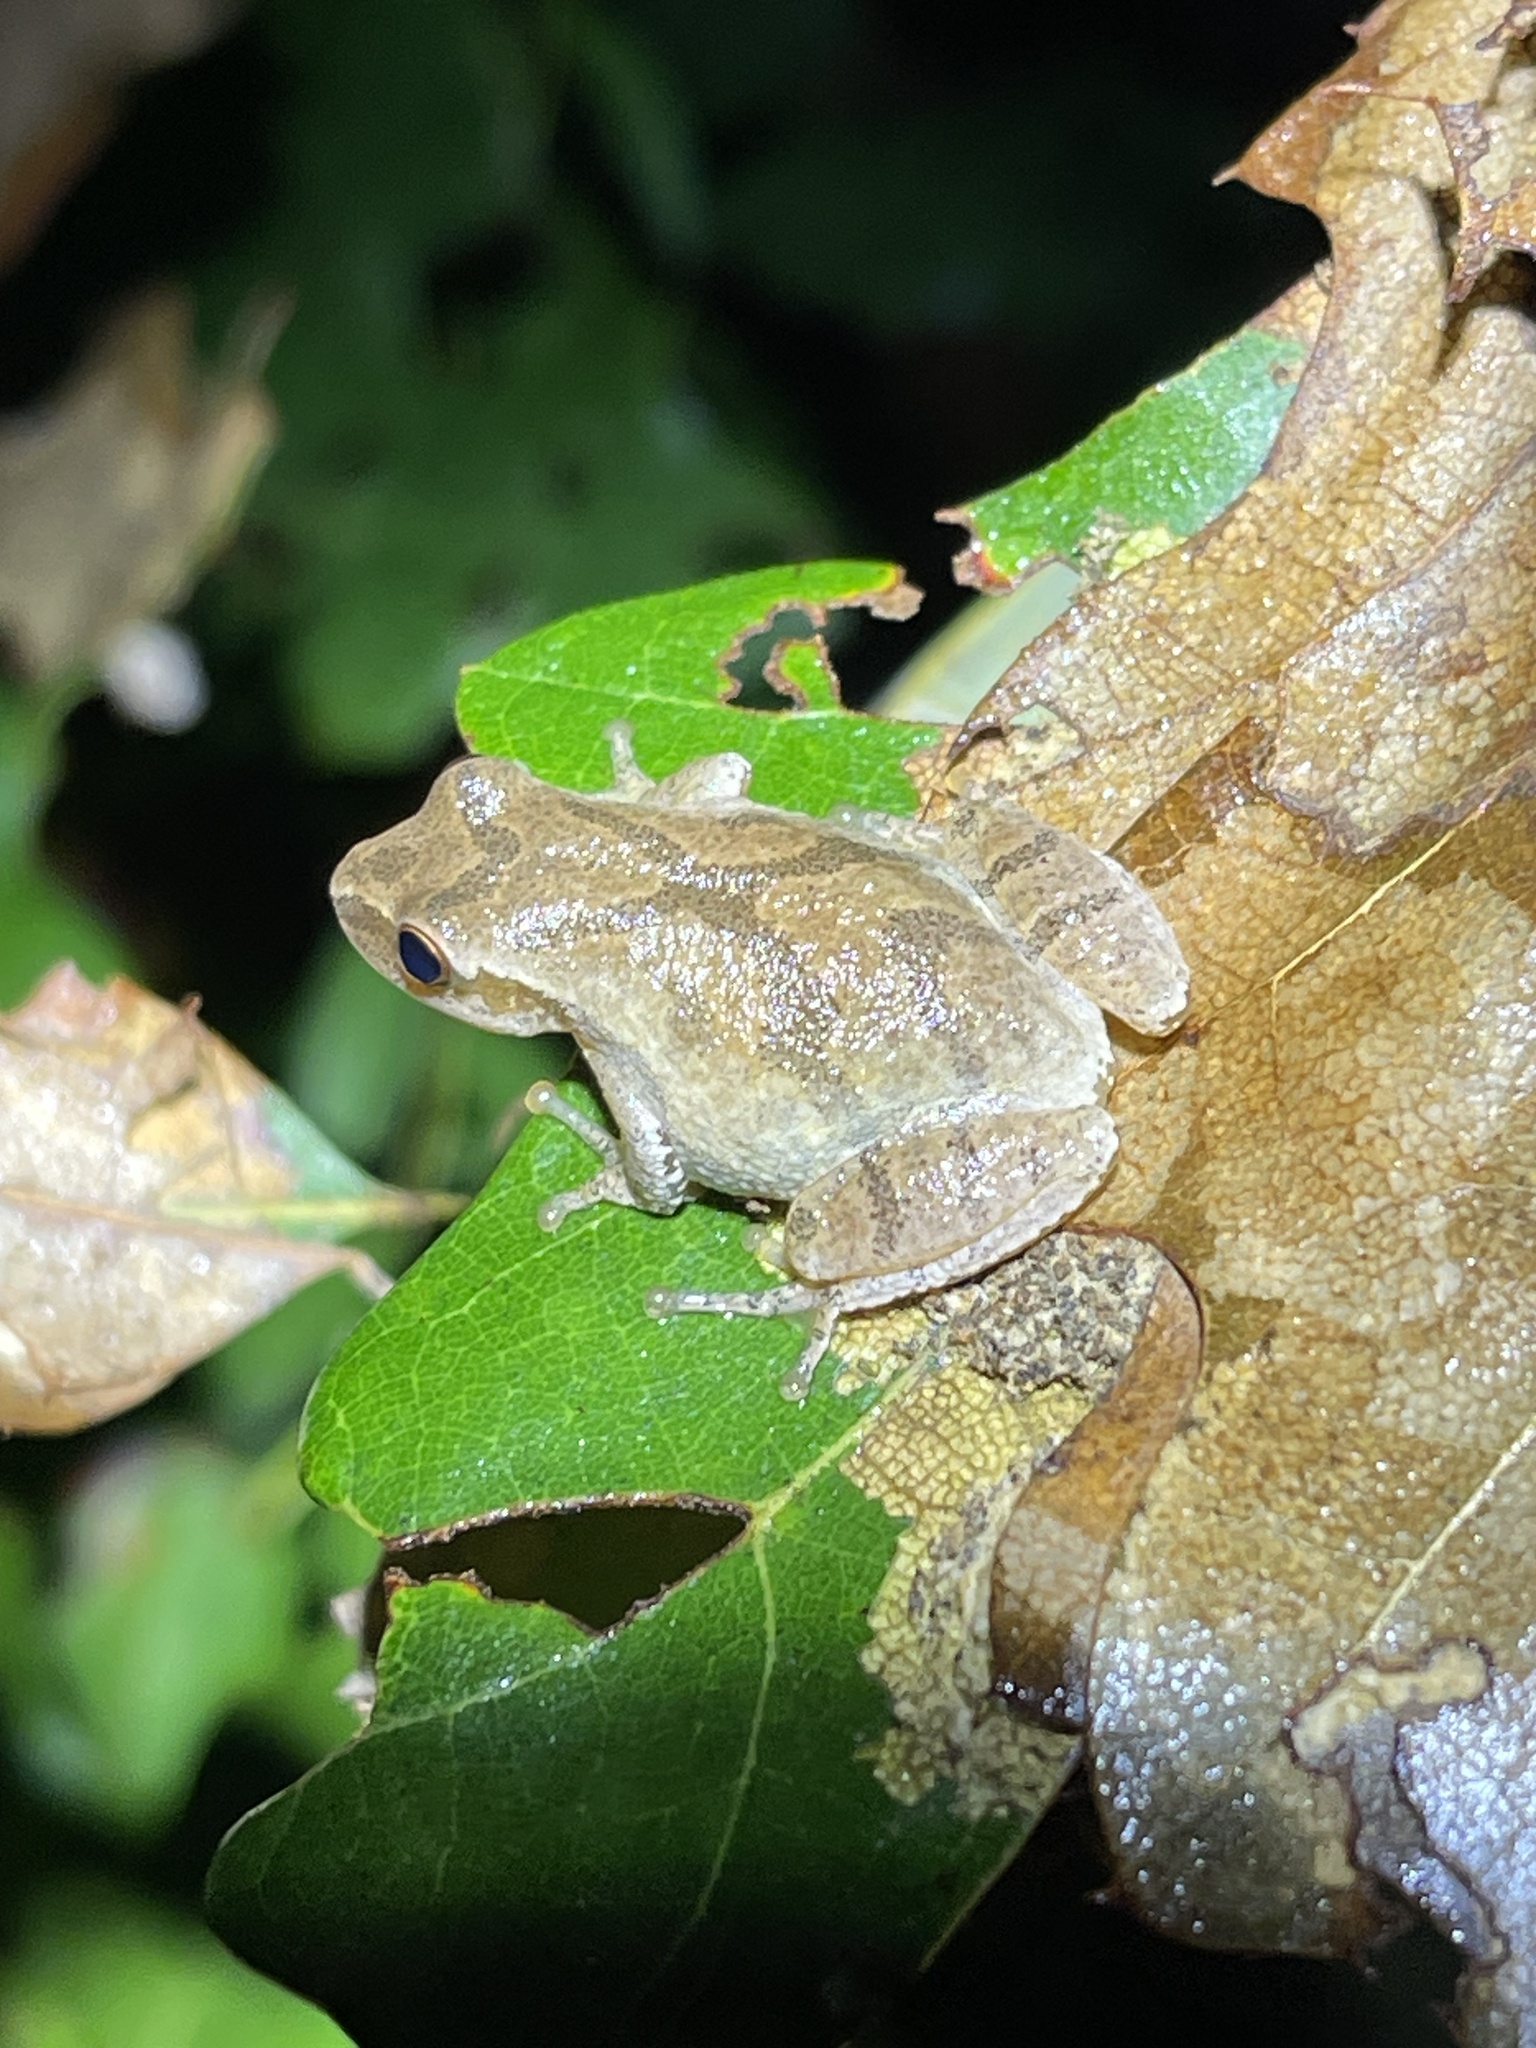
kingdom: Animalia
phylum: Chordata
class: Amphibia
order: Anura
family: Hylidae
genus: Pseudacris
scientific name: Pseudacris crucifer
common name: Spring peeper
